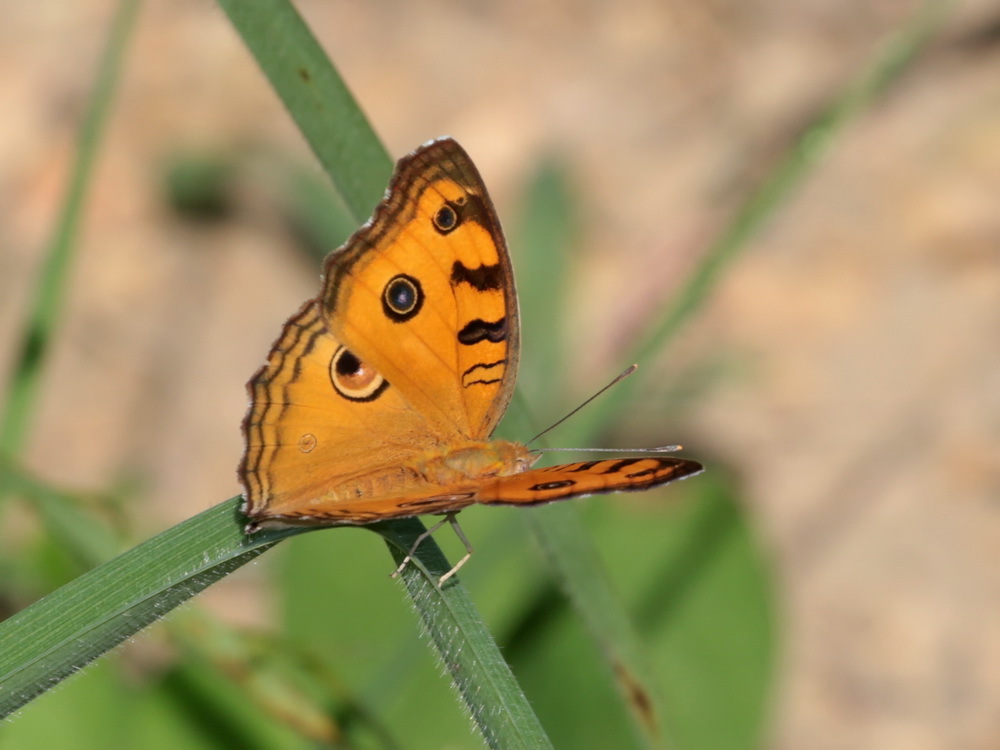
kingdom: Animalia
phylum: Arthropoda
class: Insecta
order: Lepidoptera
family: Nymphalidae
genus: Junonia
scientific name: Junonia almana
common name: Peacock pansy
